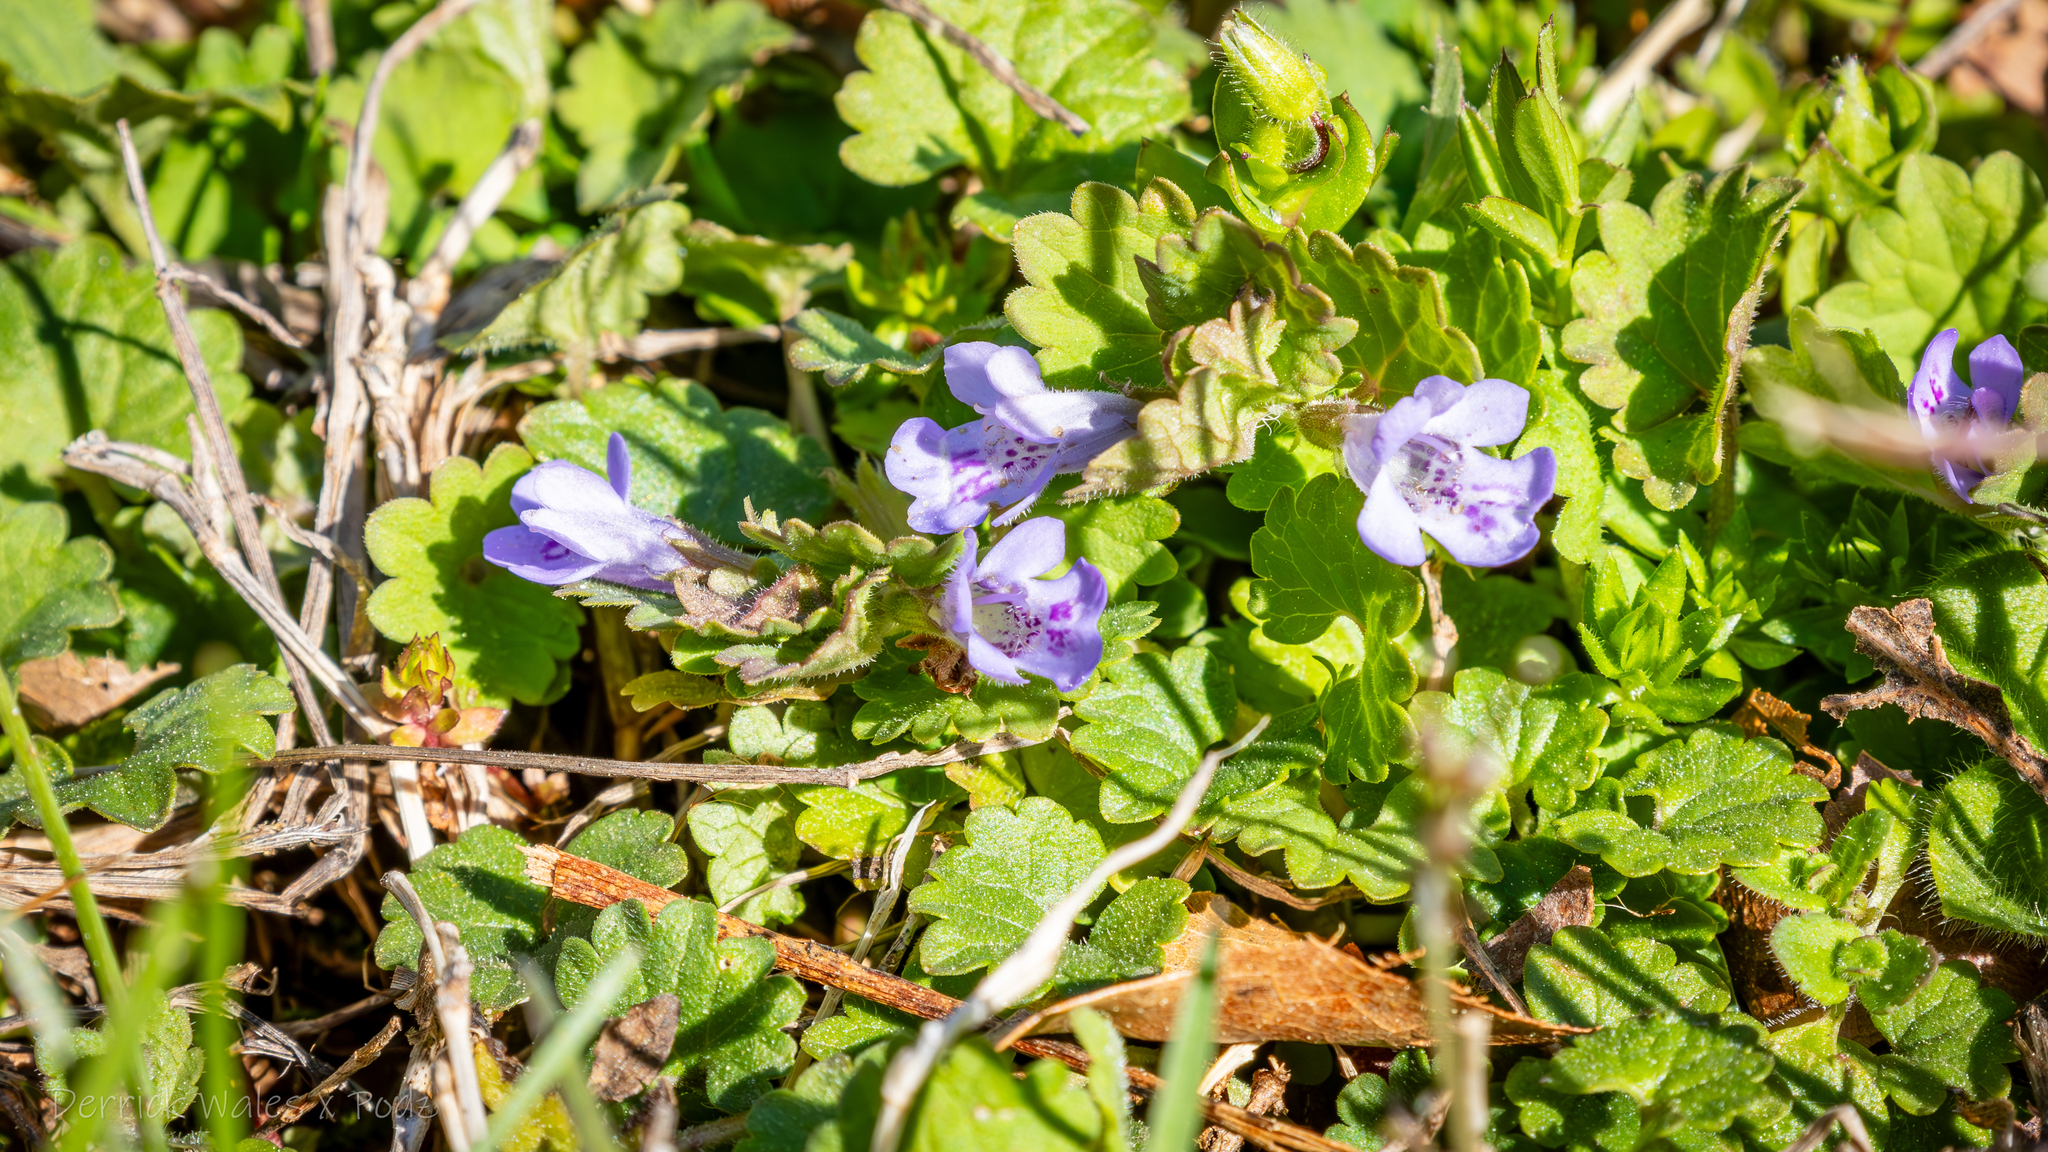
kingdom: Plantae
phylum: Tracheophyta
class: Magnoliopsida
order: Lamiales
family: Lamiaceae
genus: Glechoma
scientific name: Glechoma hederacea
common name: Ground ivy
